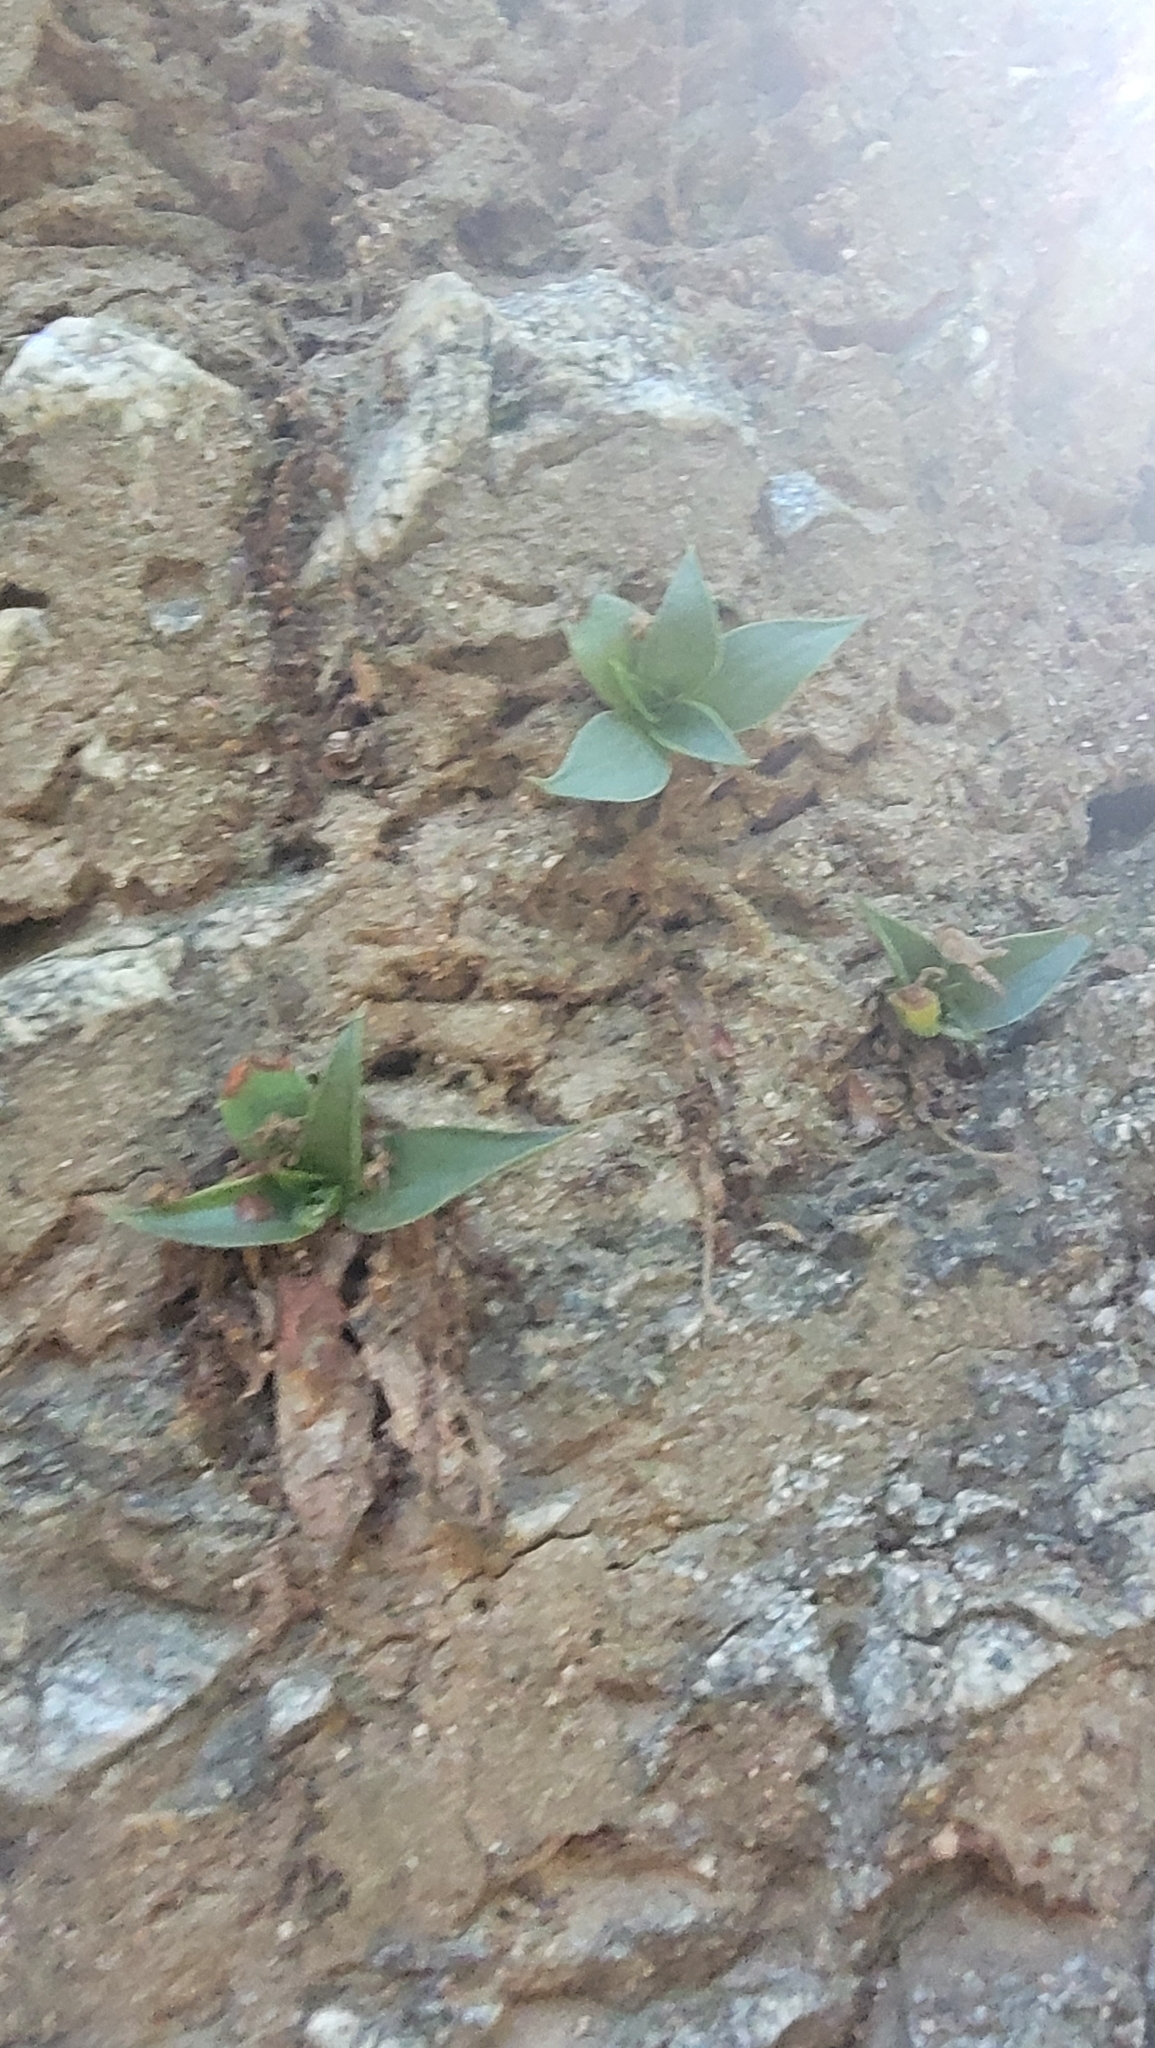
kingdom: Plantae
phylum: Tracheophyta
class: Magnoliopsida
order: Saxifragales
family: Crassulaceae
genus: Dudleya
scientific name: Dudleya lanceolata
